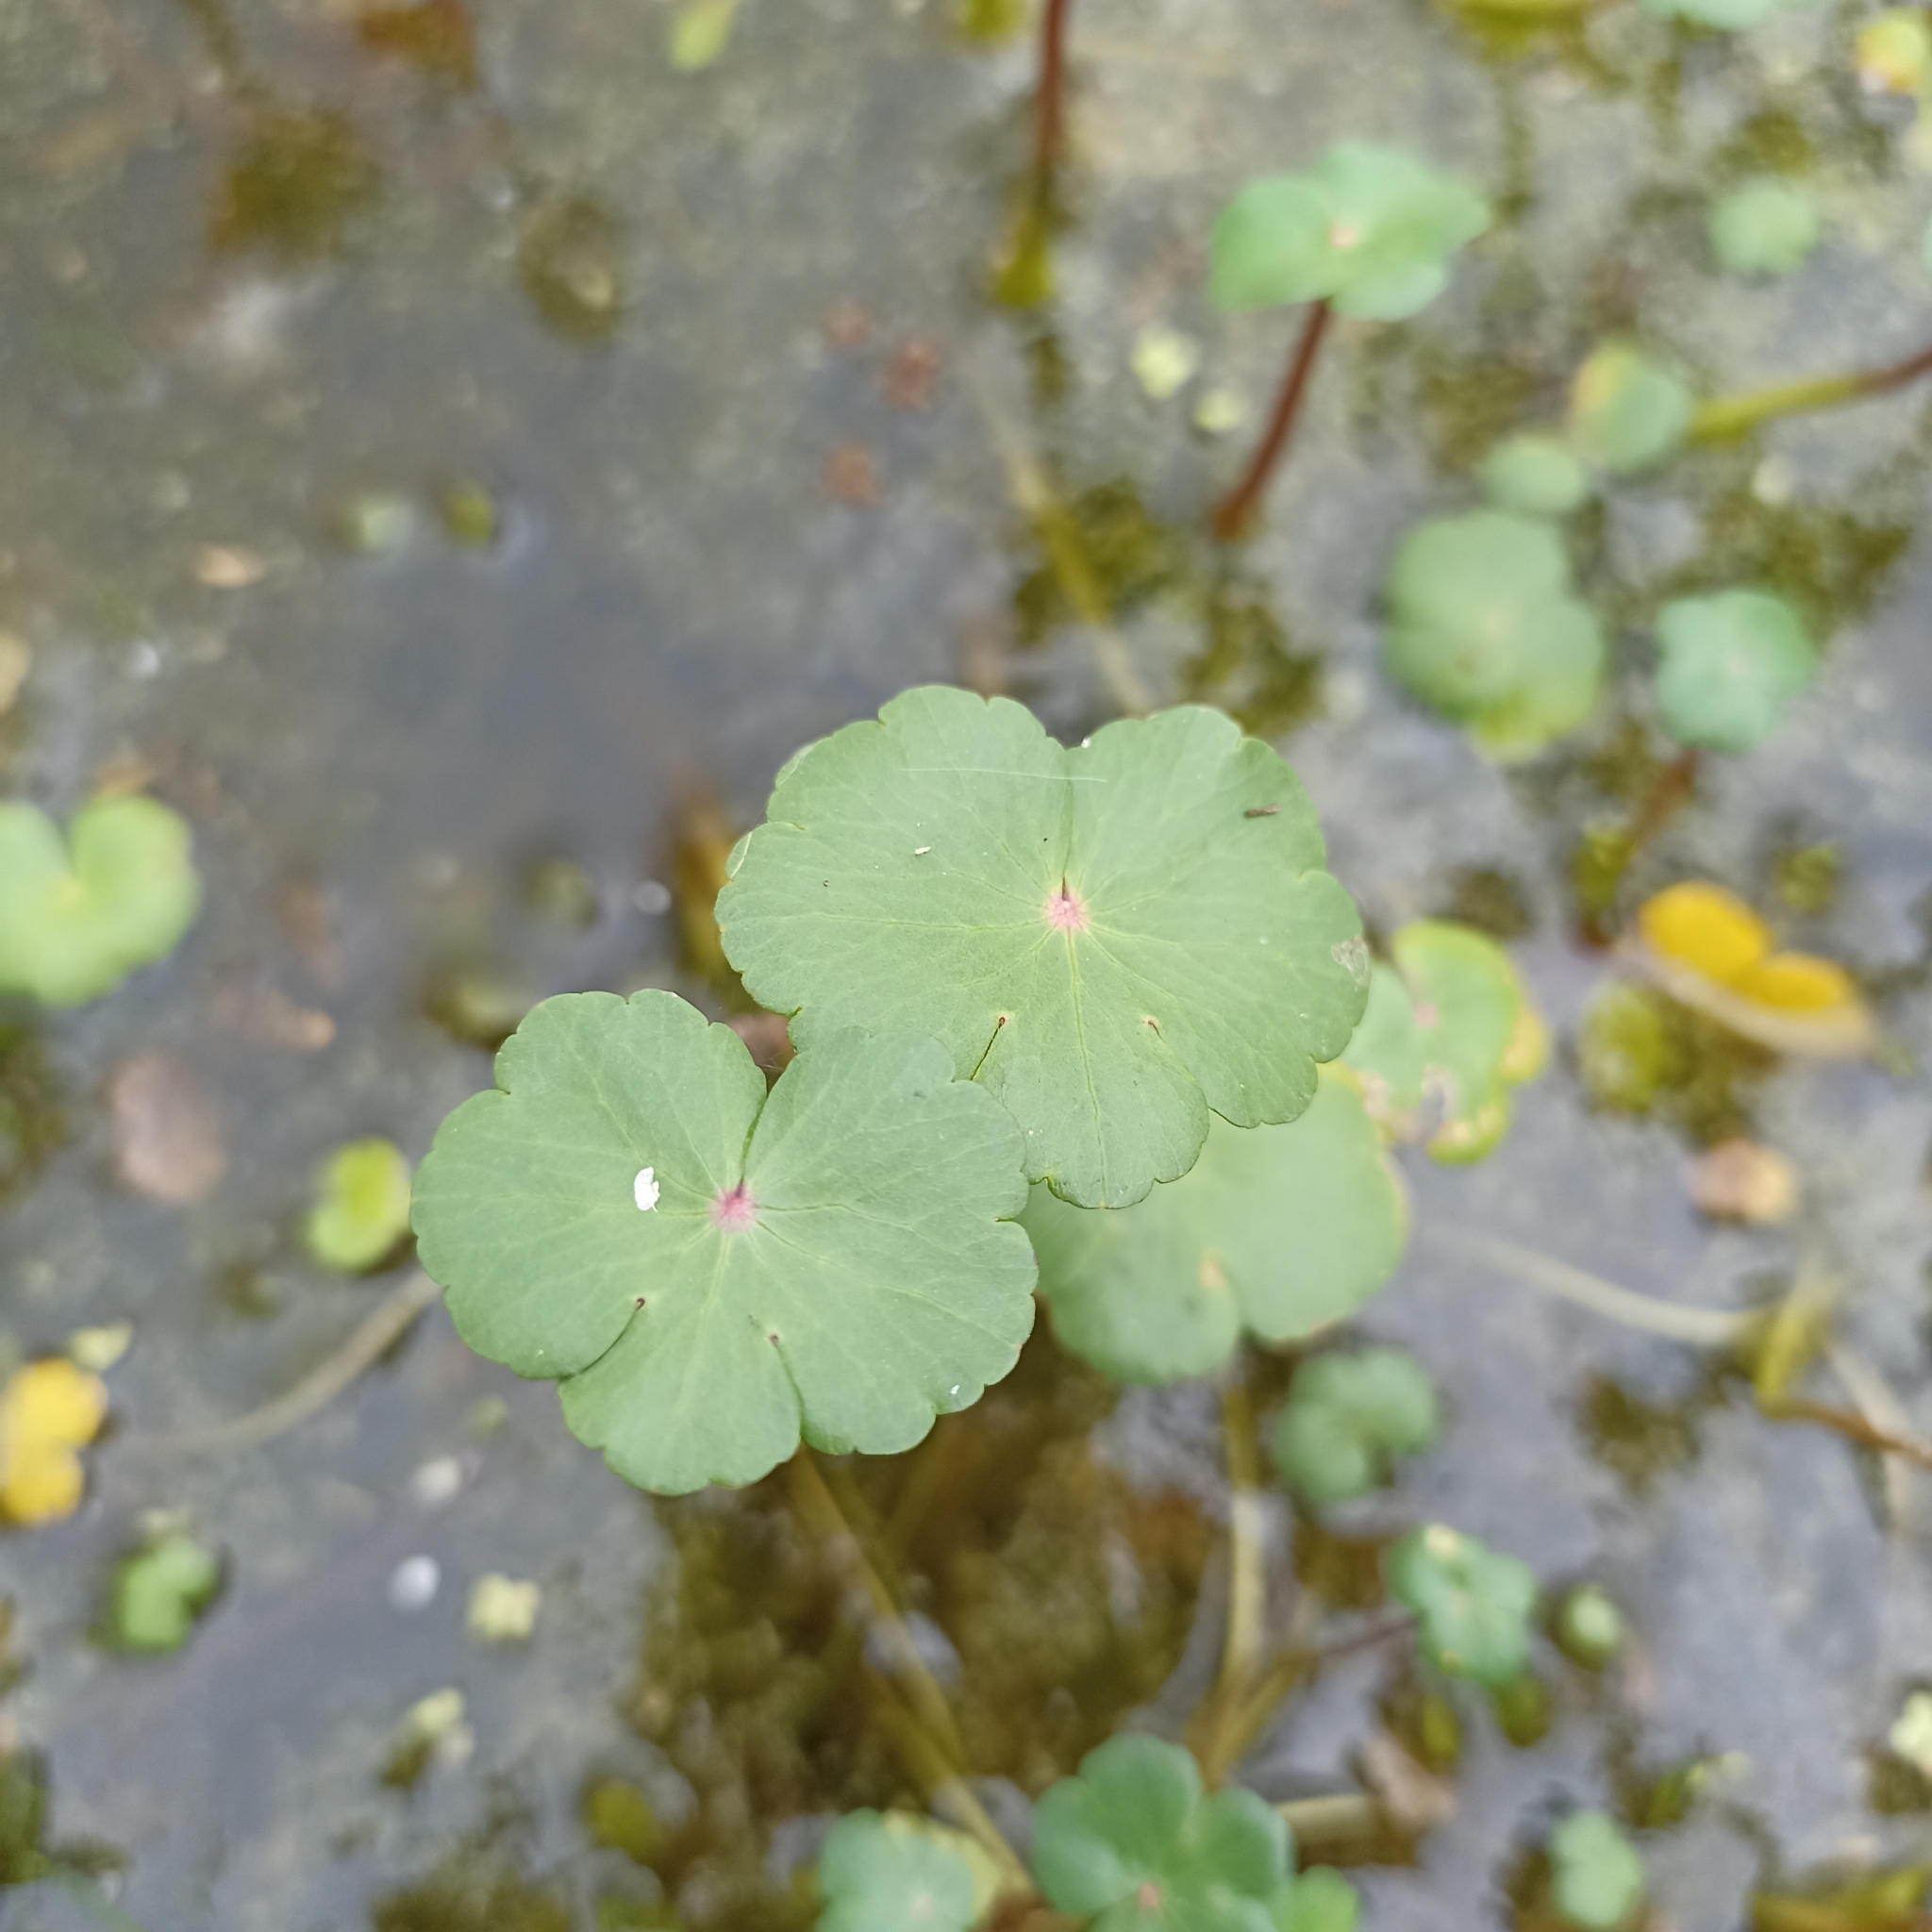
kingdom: Plantae
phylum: Tracheophyta
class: Magnoliopsida
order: Apiales
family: Araliaceae
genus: Hydrocotyle
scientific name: Hydrocotyle ranunculoides
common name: Floating pennywort
